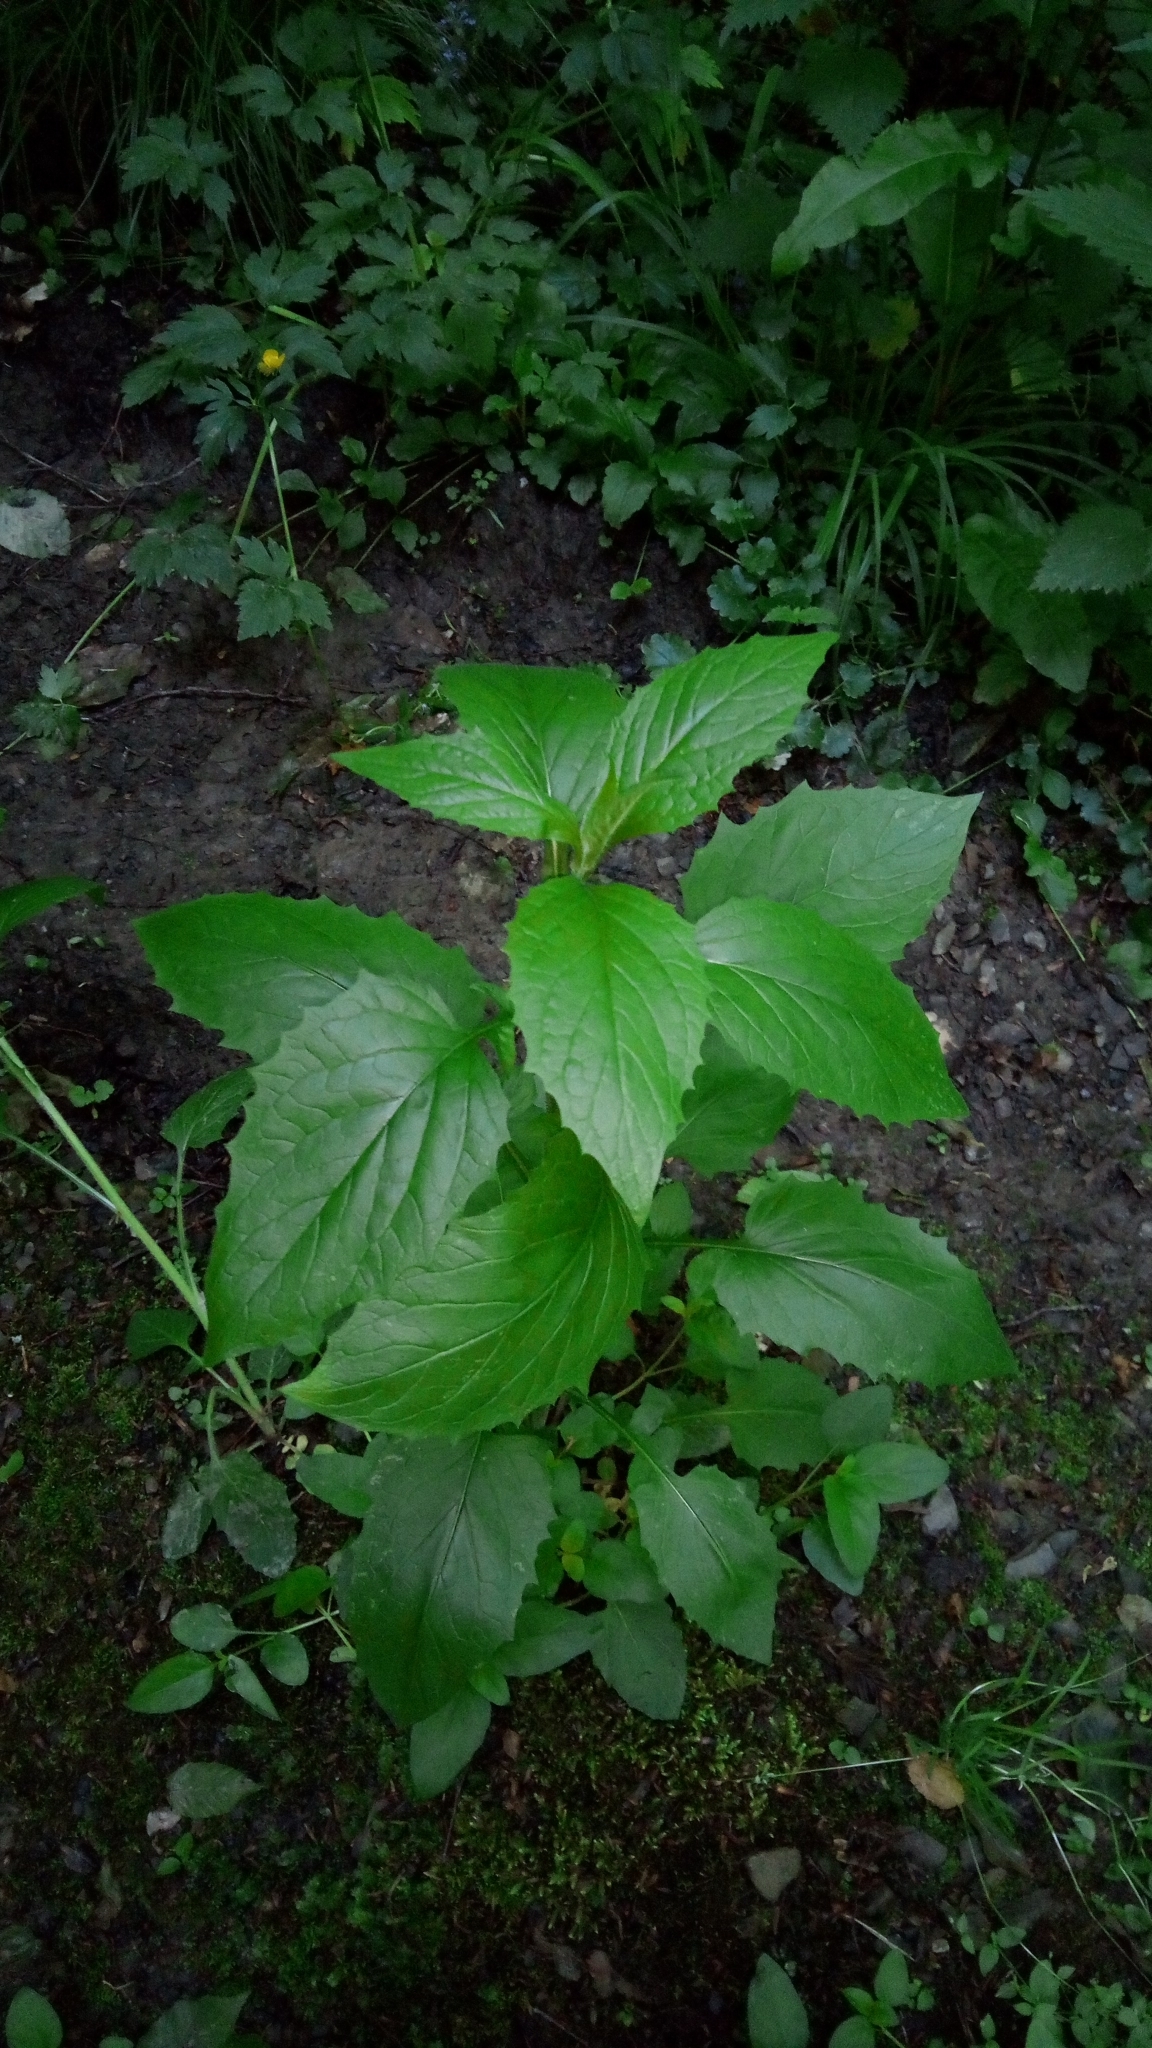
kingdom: Plantae
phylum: Tracheophyta
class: Magnoliopsida
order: Asterales
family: Asteraceae
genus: Lapsana
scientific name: Lapsana communis
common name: Nipplewort
